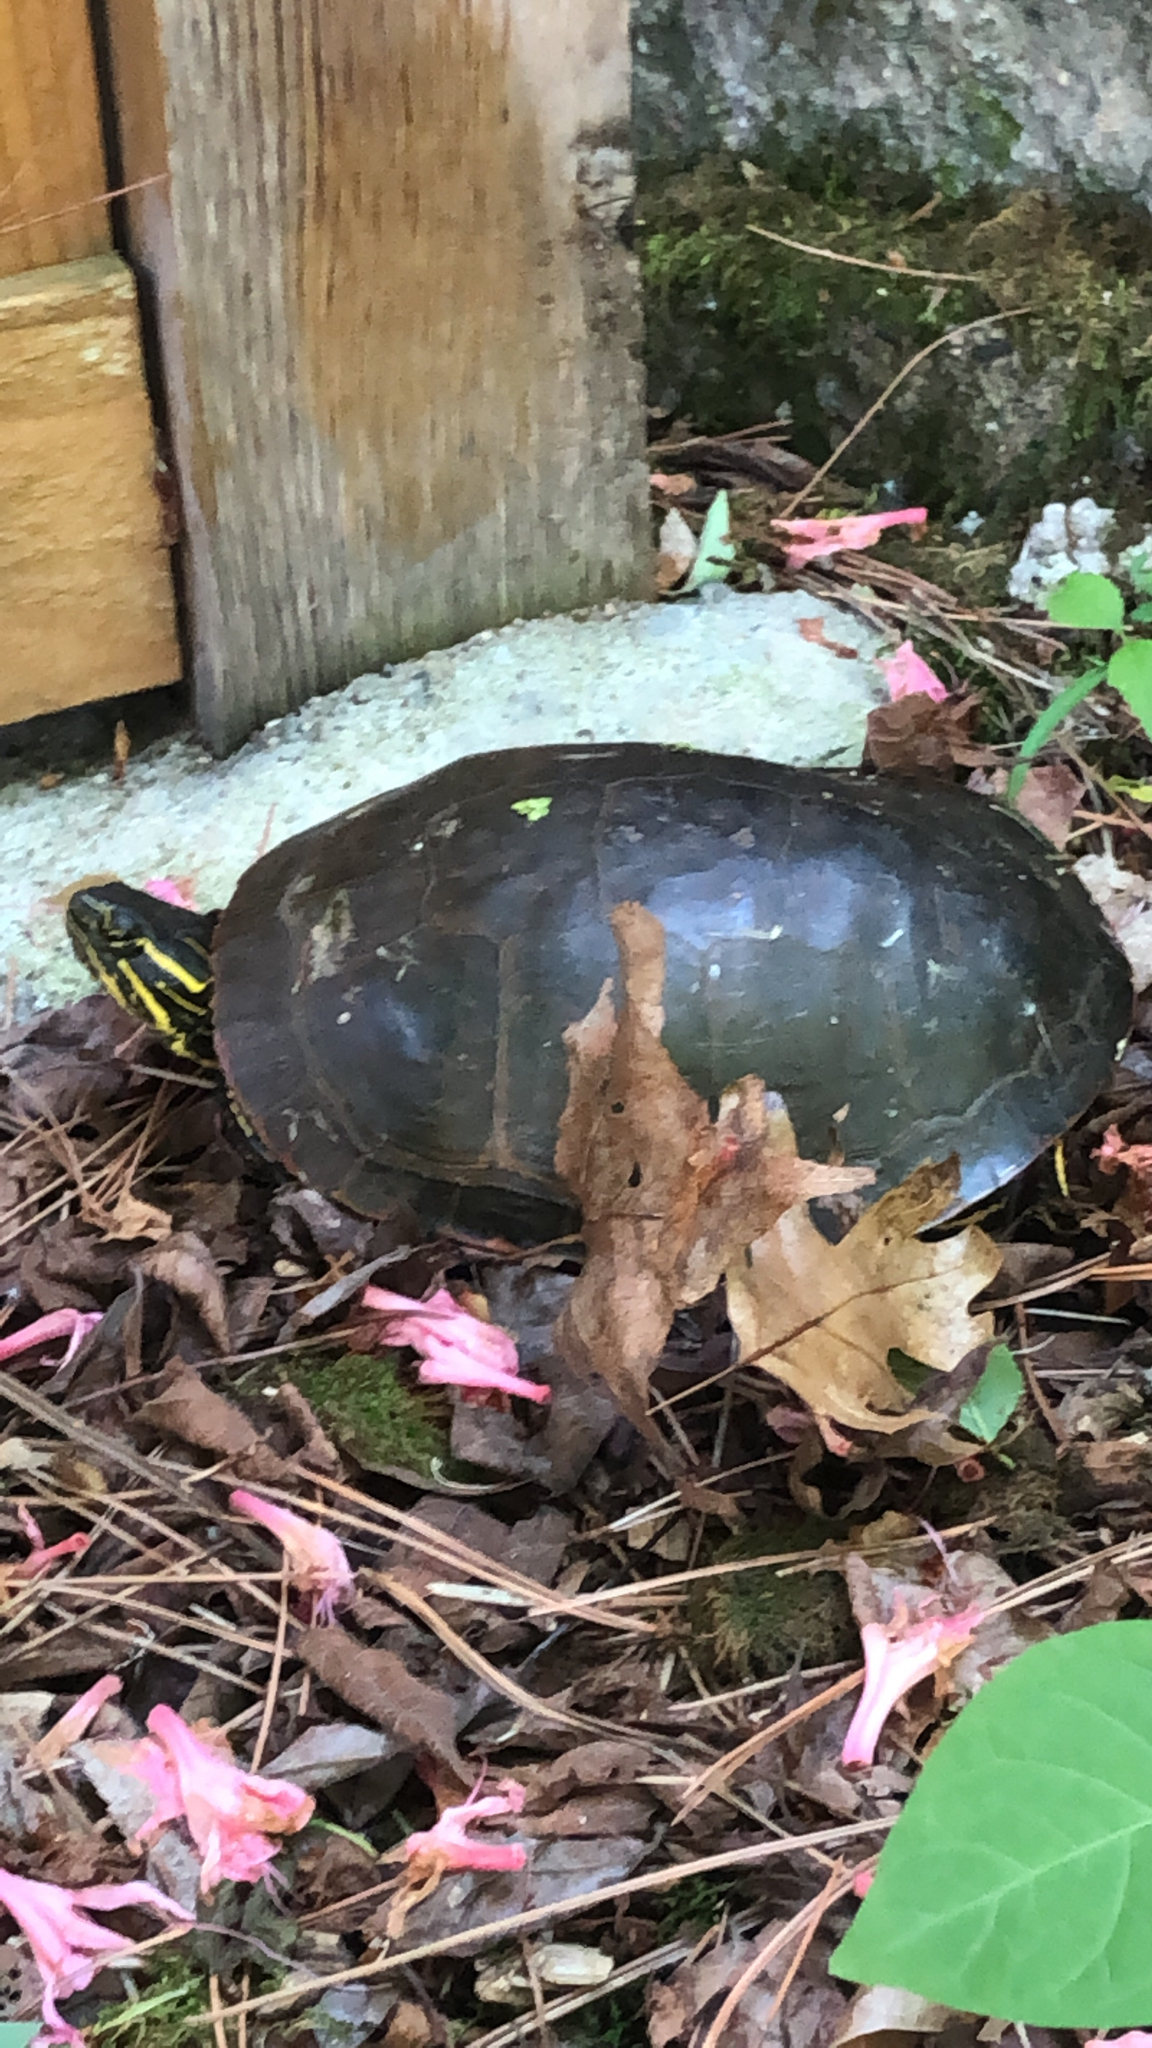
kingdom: Animalia
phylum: Chordata
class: Testudines
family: Emydidae
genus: Chrysemys
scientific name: Chrysemys picta
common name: Painted turtle
